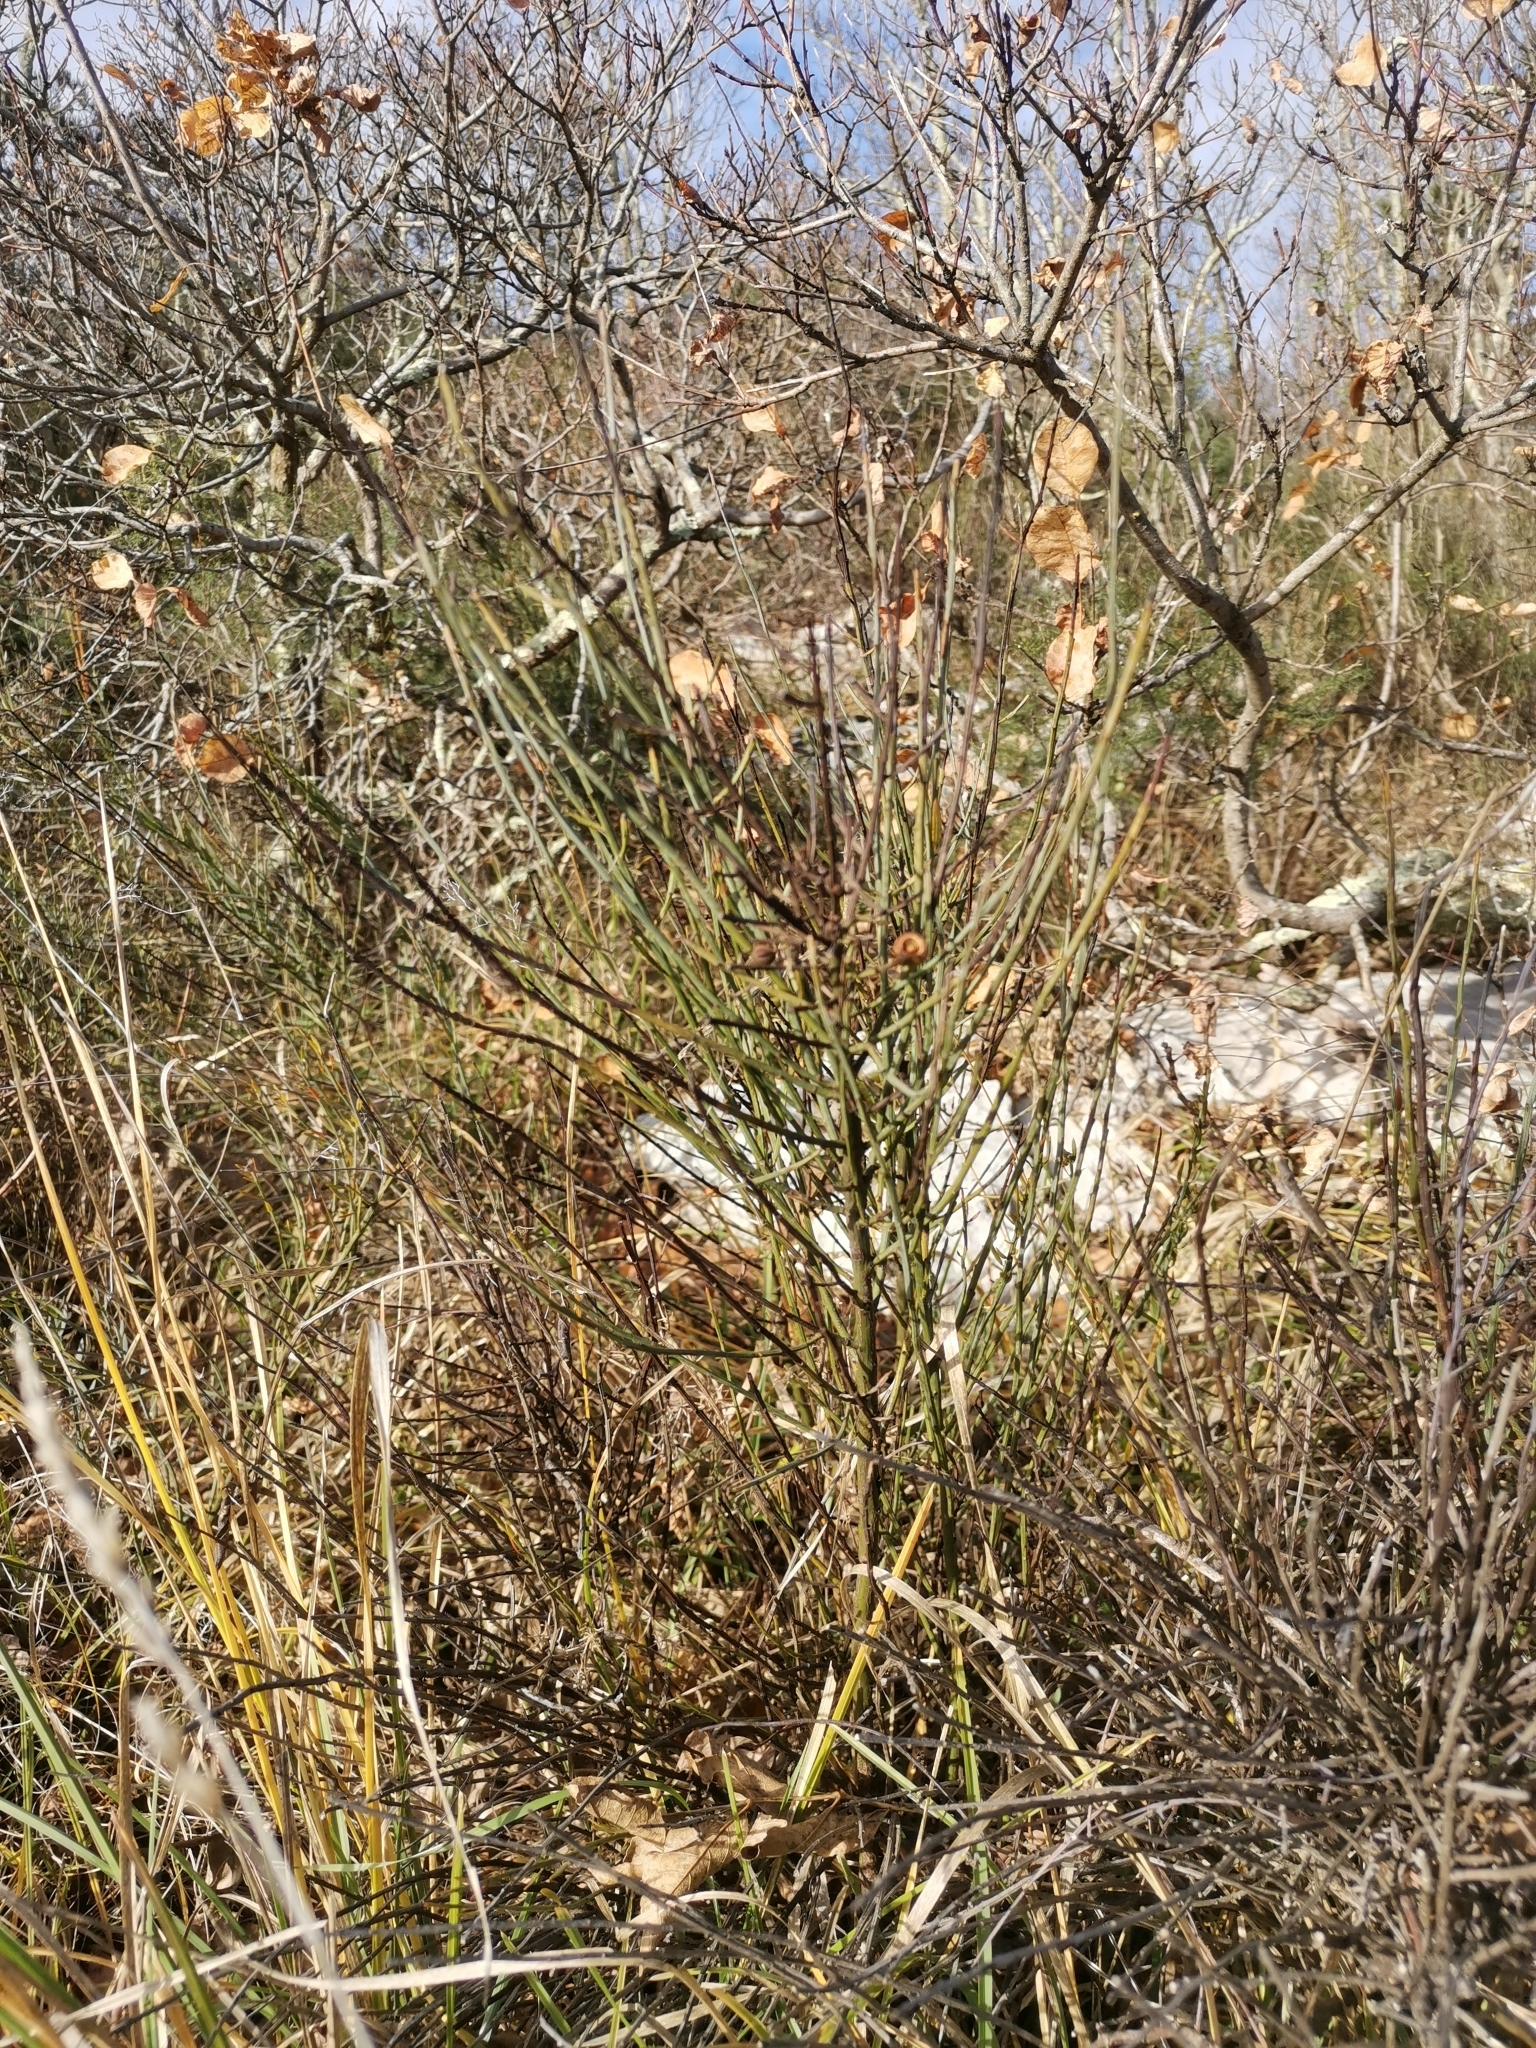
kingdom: Plantae
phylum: Tracheophyta
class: Magnoliopsida
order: Santalales
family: Santalaceae
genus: Osyris
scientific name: Osyris alba
